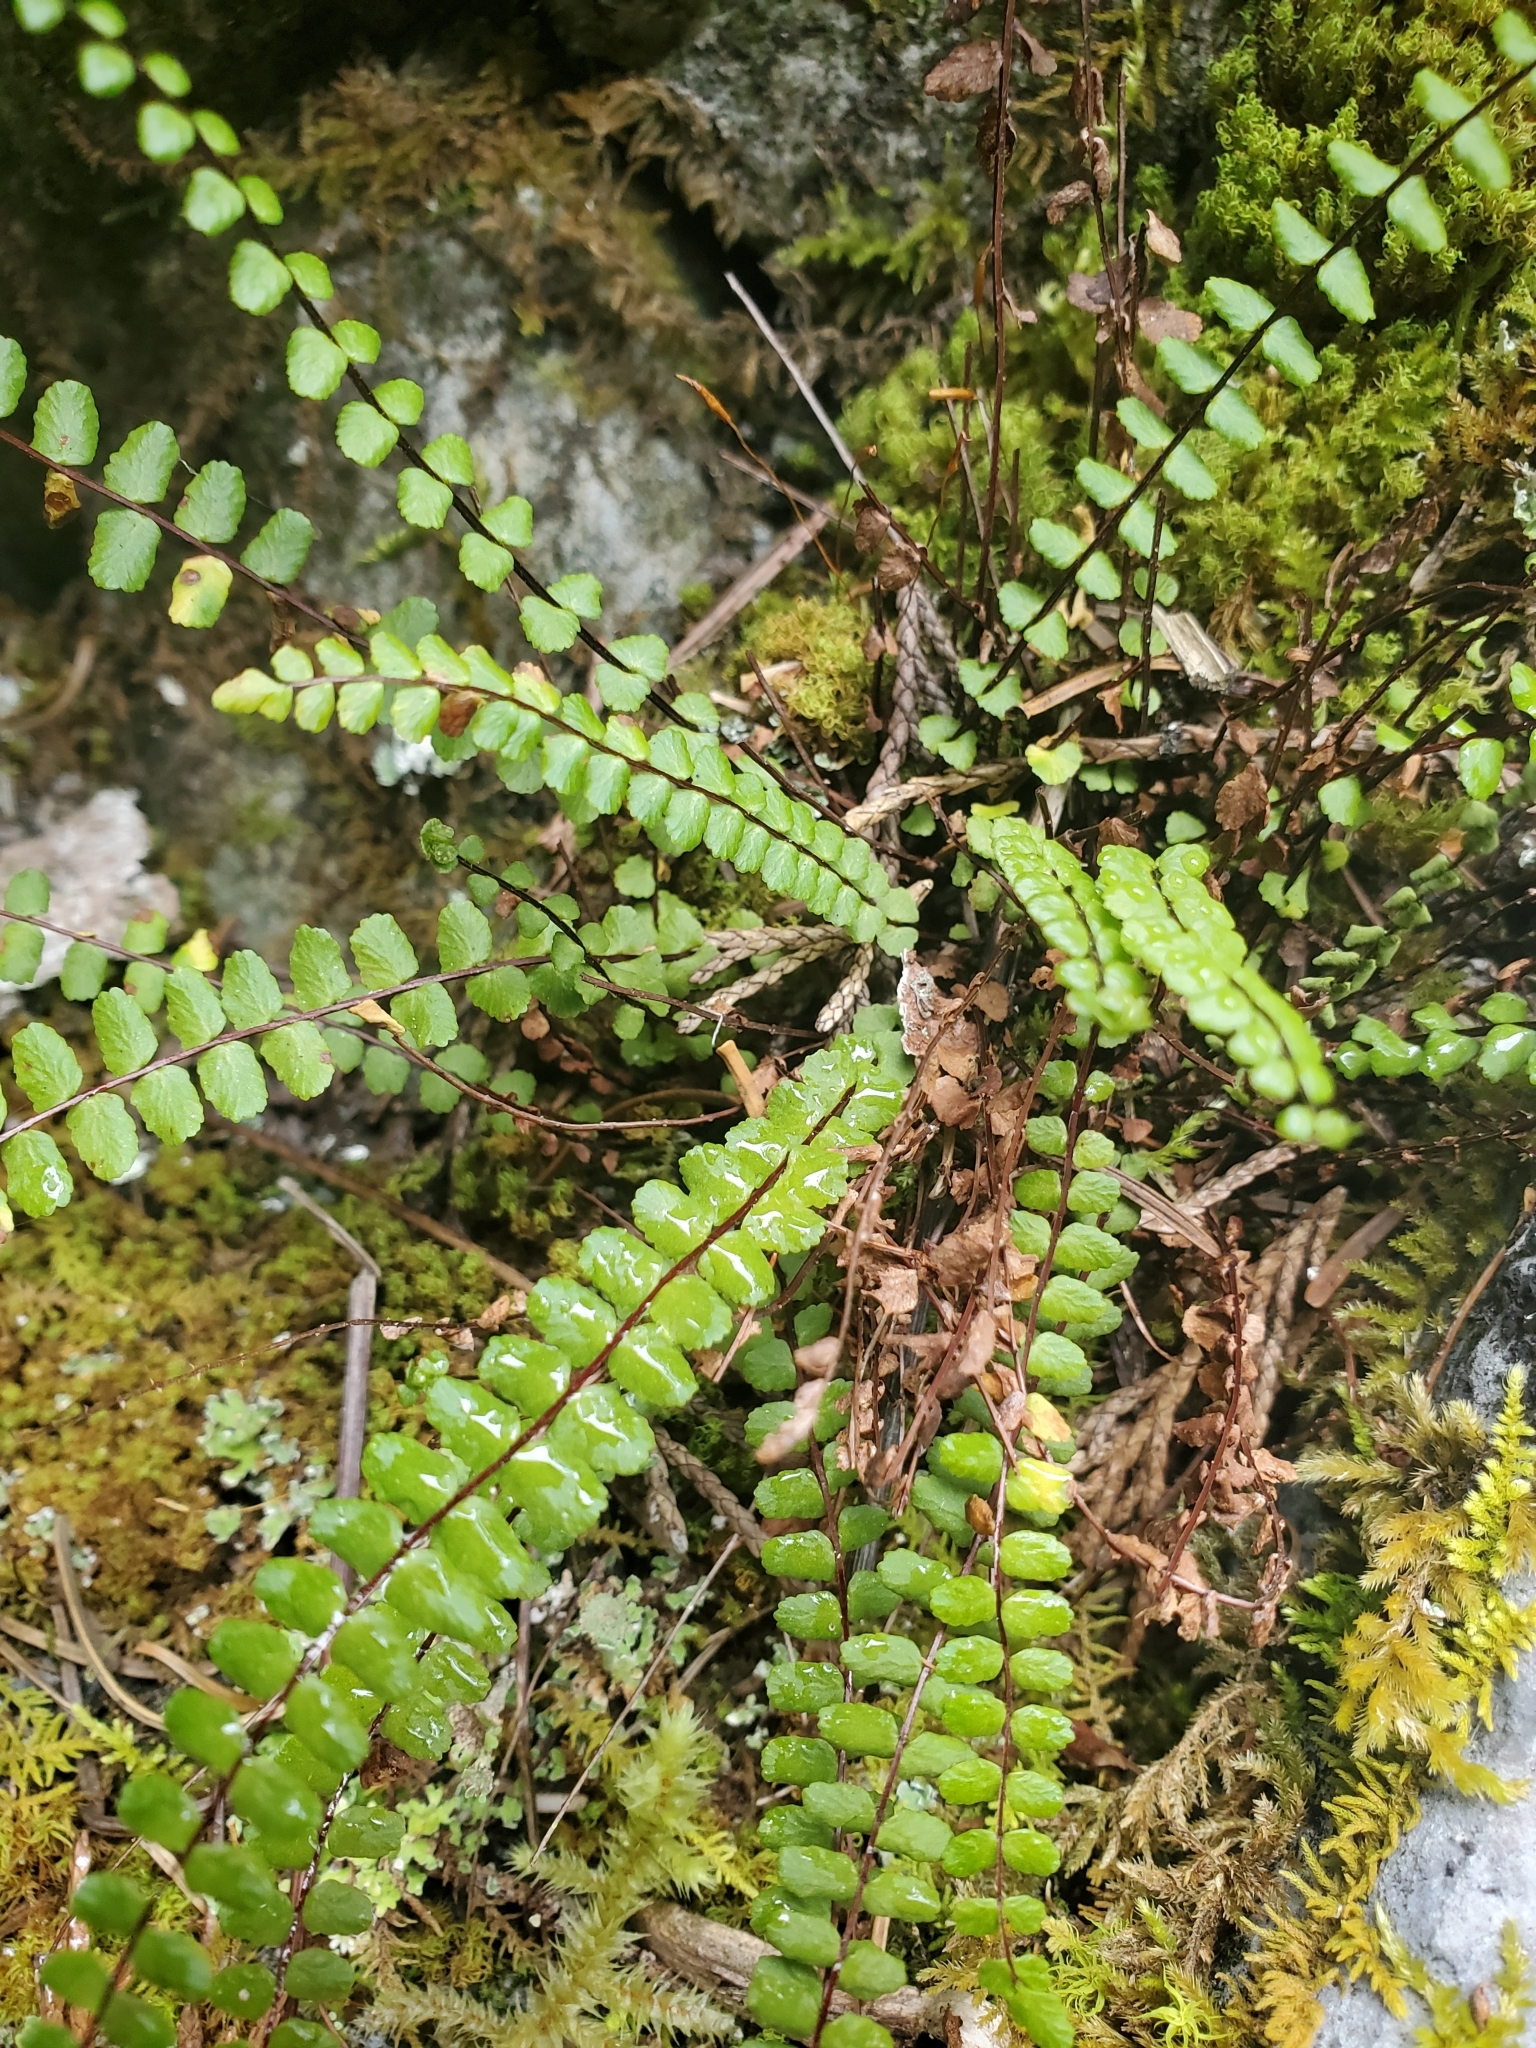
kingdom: Plantae
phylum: Tracheophyta
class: Polypodiopsida
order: Polypodiales
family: Aspleniaceae
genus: Asplenium
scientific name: Asplenium trichomanes
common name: Maidenhair spleenwort
